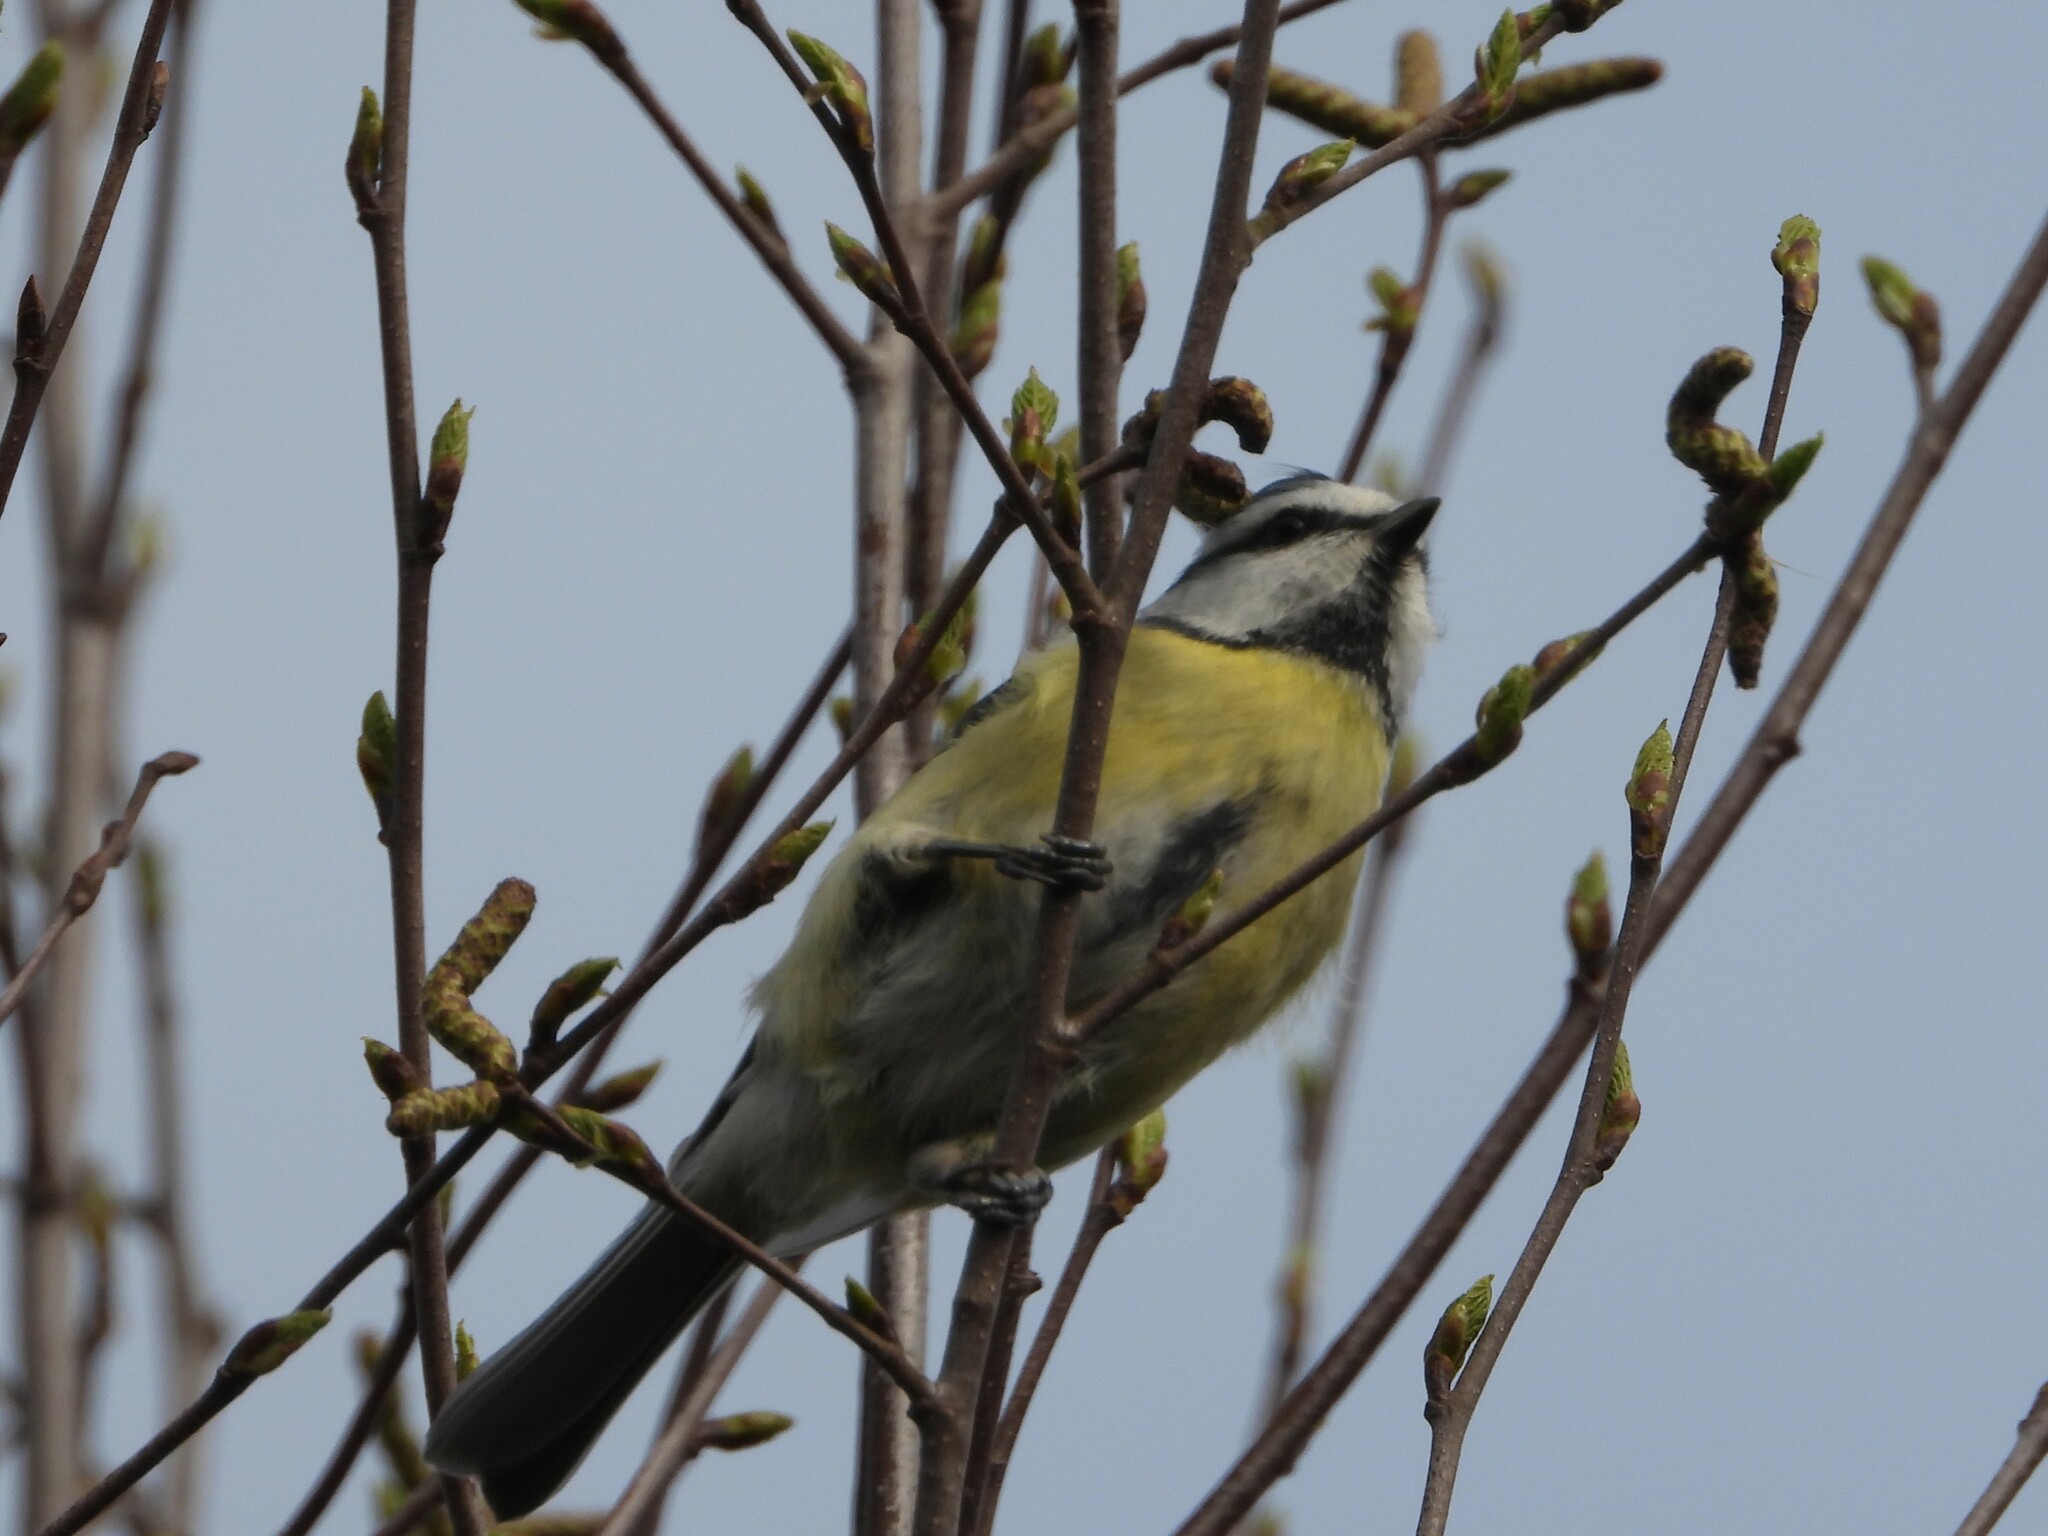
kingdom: Animalia
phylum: Chordata
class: Aves
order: Passeriformes
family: Paridae
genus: Cyanistes
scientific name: Cyanistes caeruleus
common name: Eurasian blue tit
